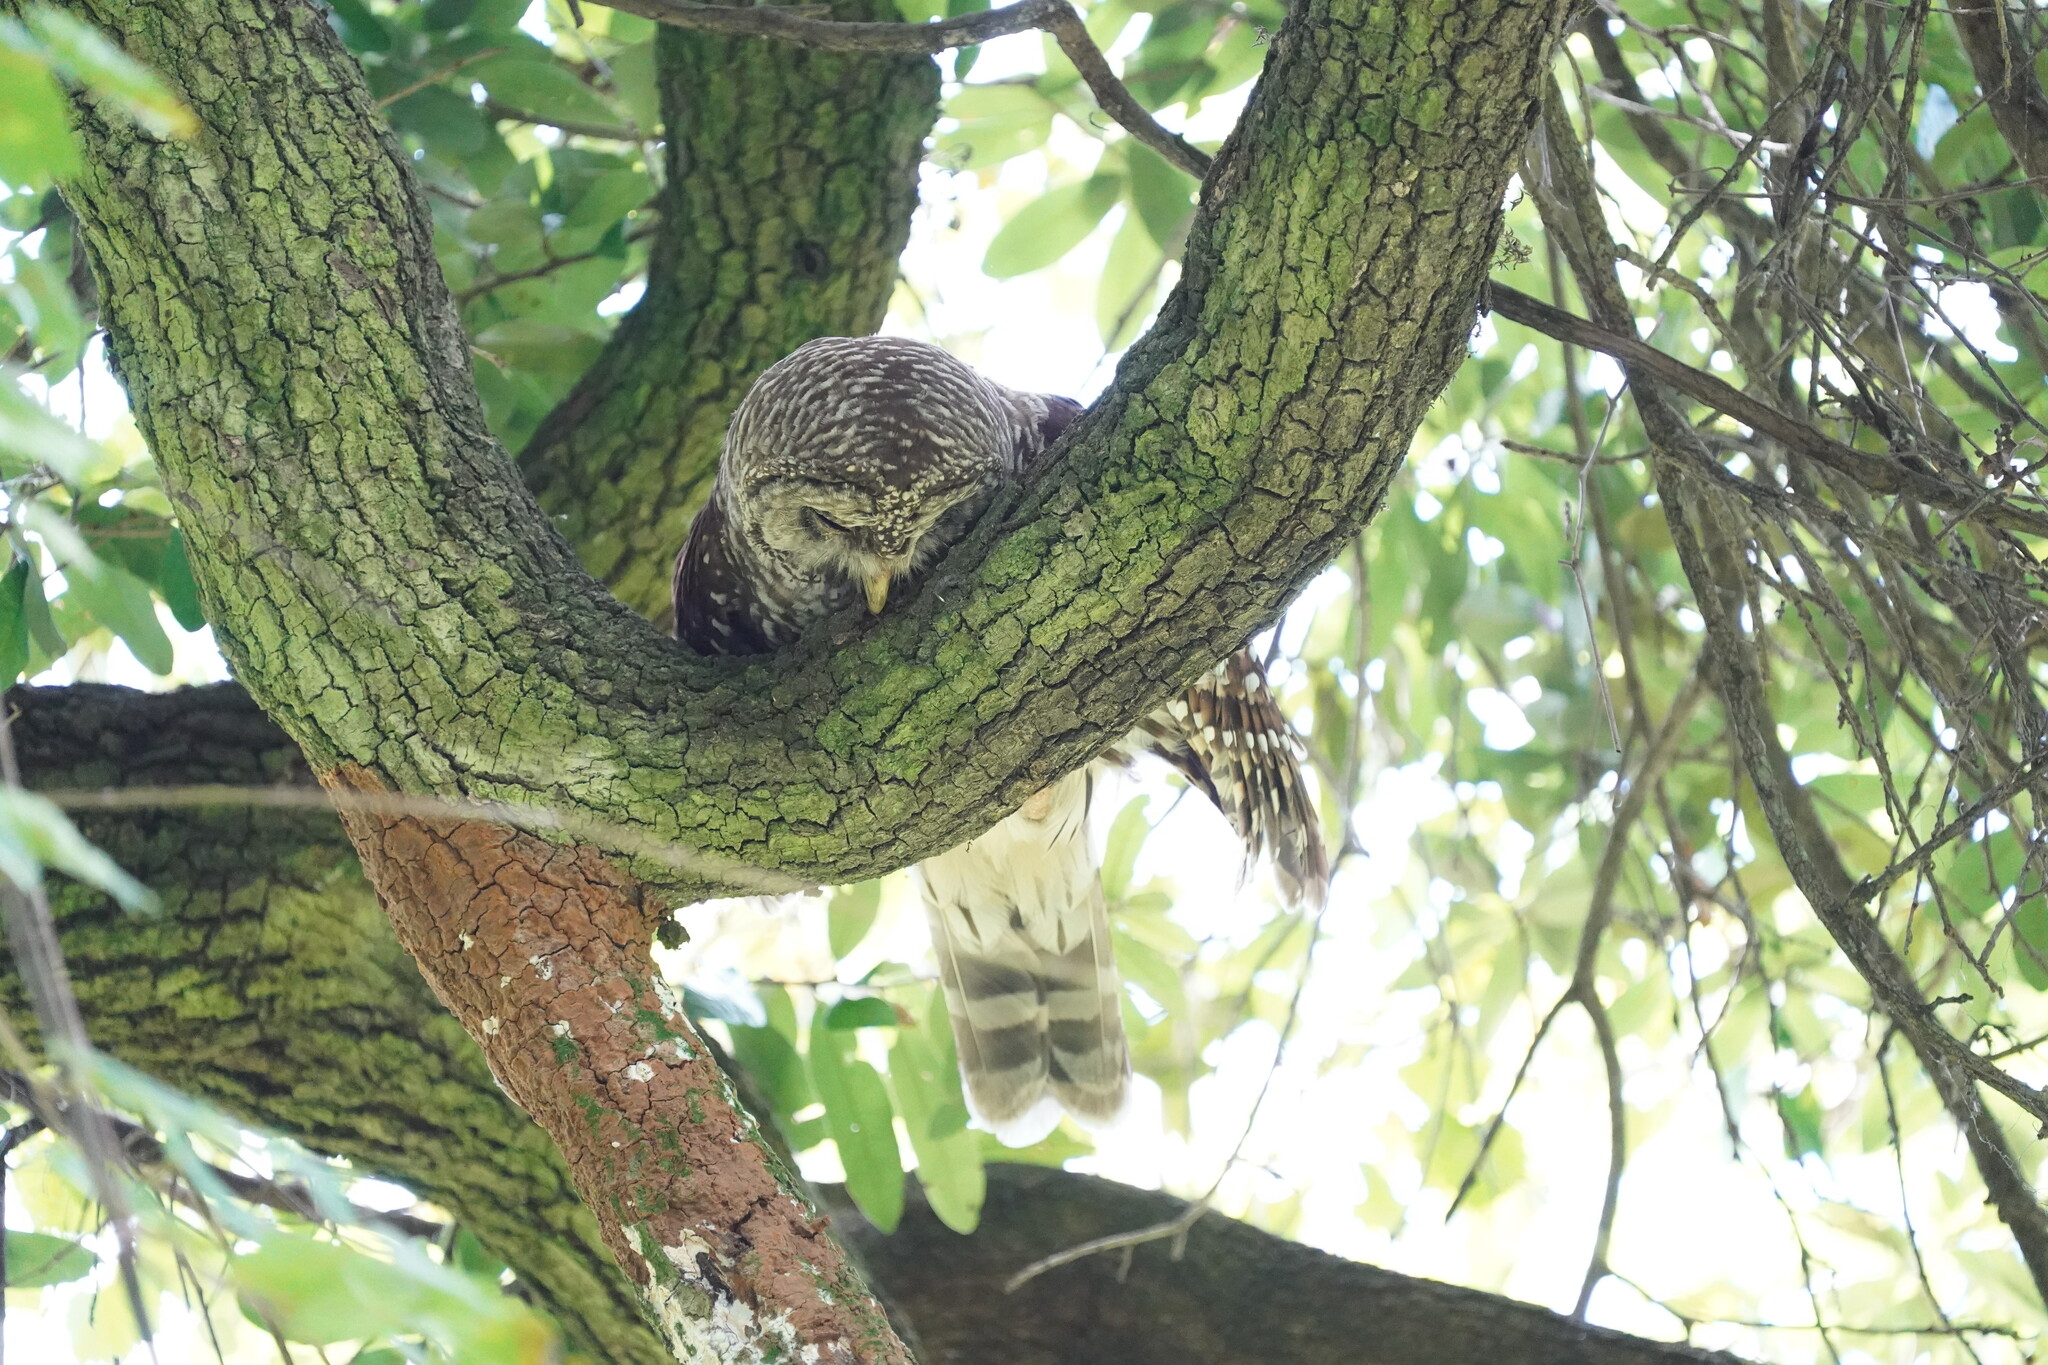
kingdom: Animalia
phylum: Chordata
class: Aves
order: Strigiformes
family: Strigidae
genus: Strix
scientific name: Strix varia
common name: Barred owl
